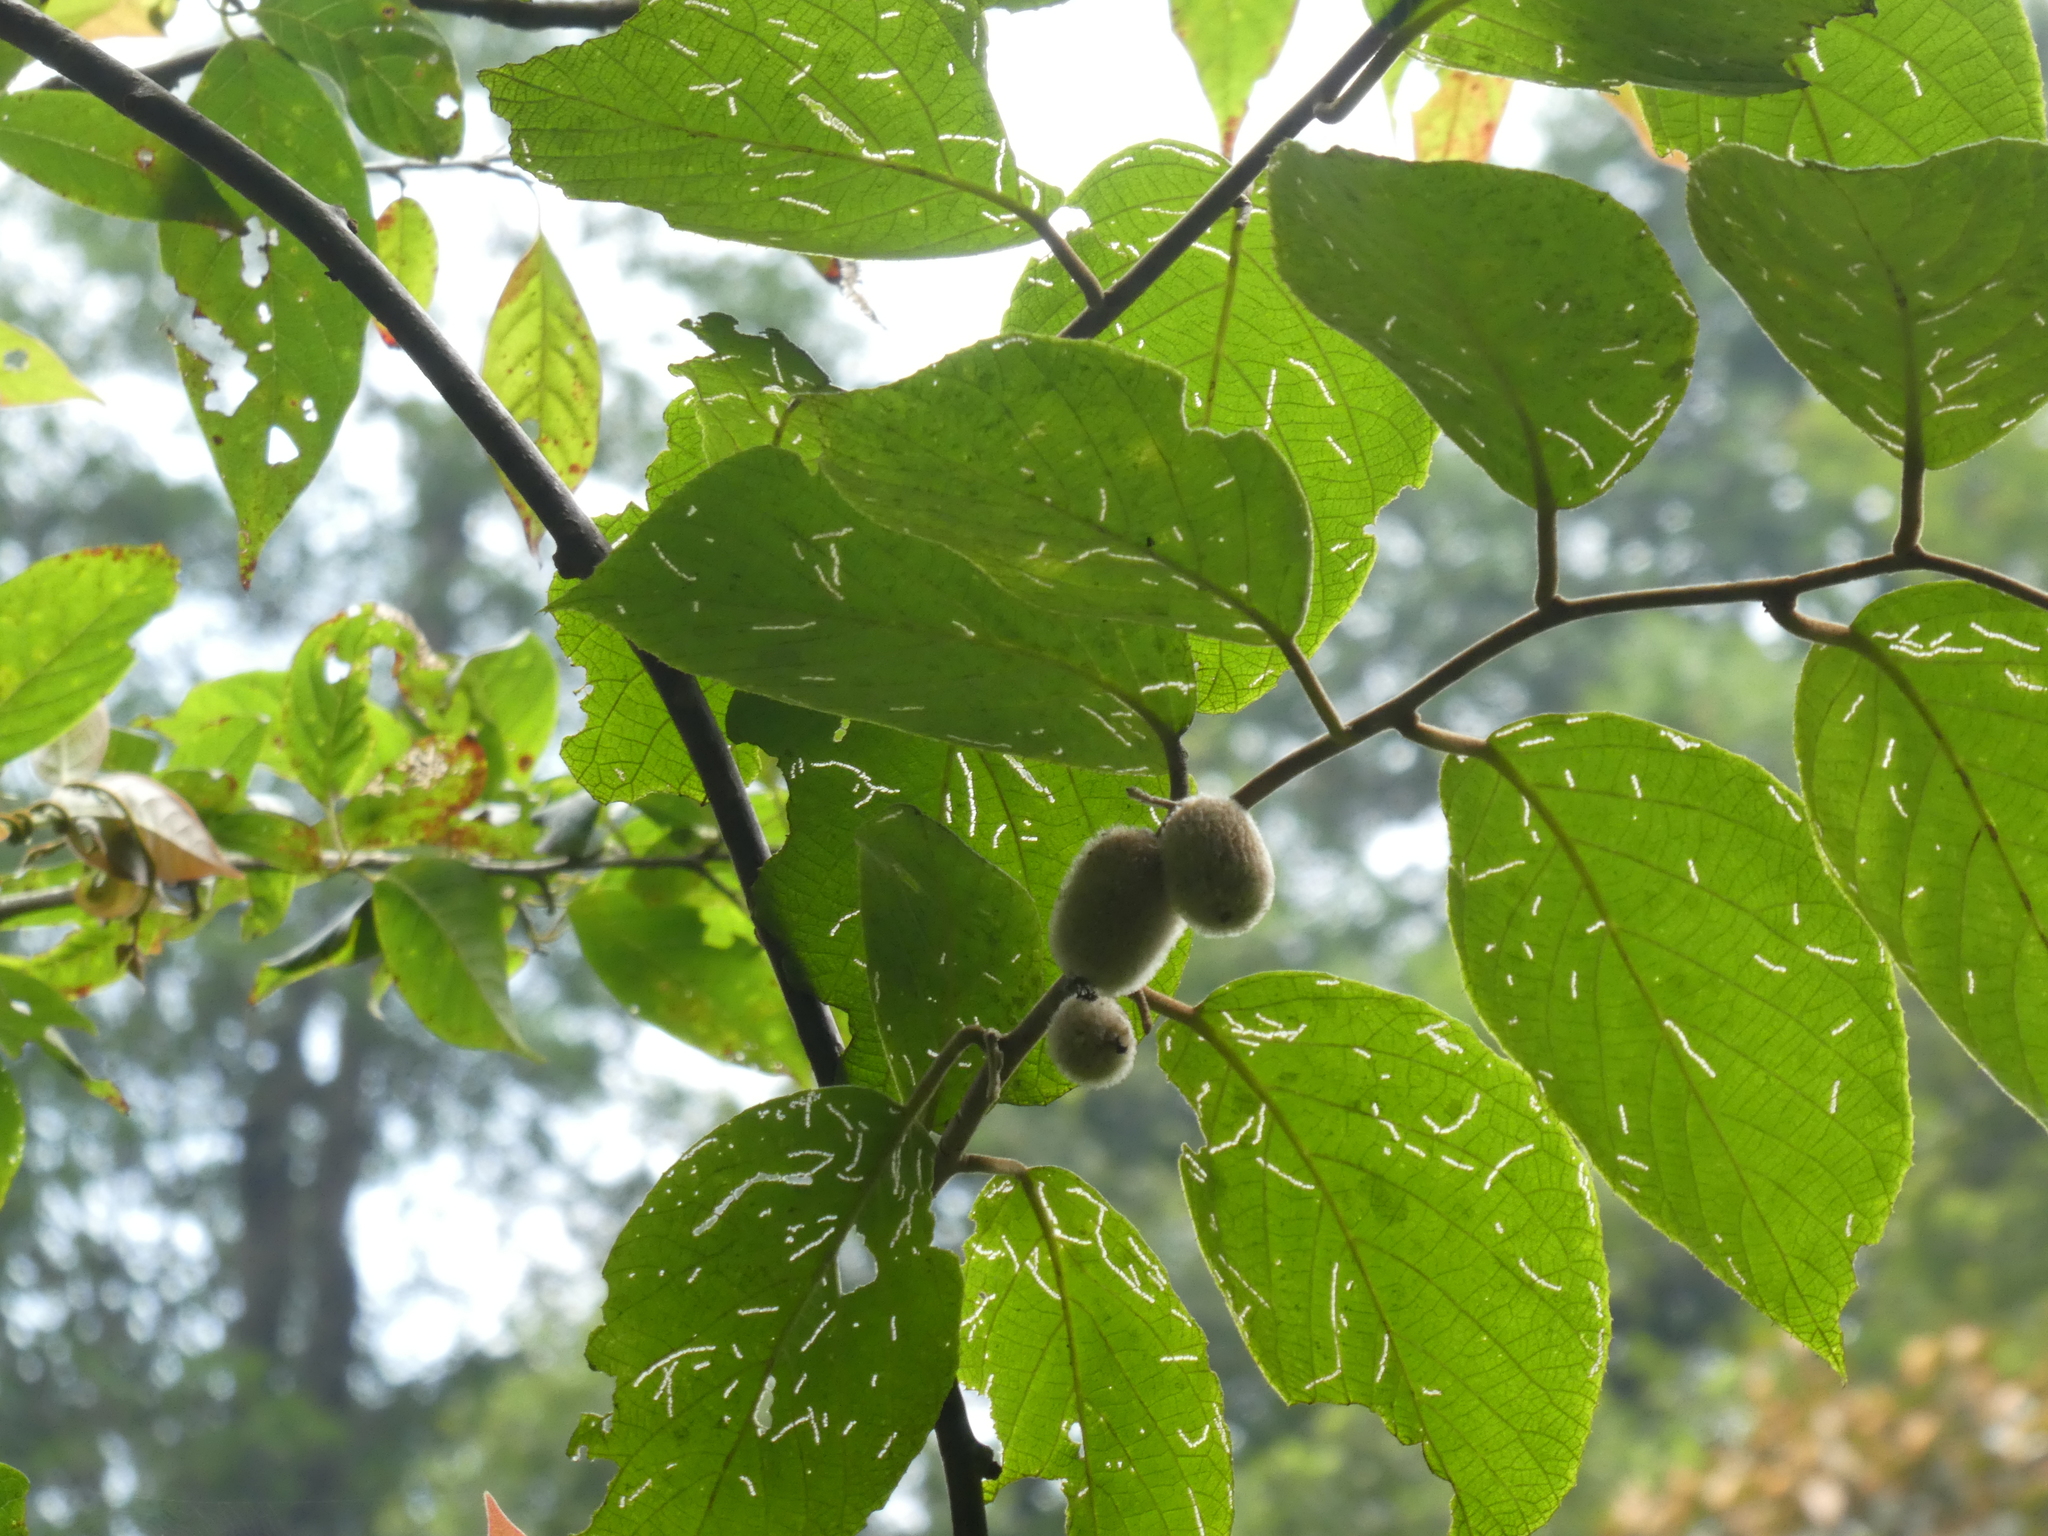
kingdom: Plantae
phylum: Tracheophyta
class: Magnoliopsida
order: Ericales
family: Actinidiaceae
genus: Actinidia
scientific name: Actinidia eriantha
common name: Velvetvine
